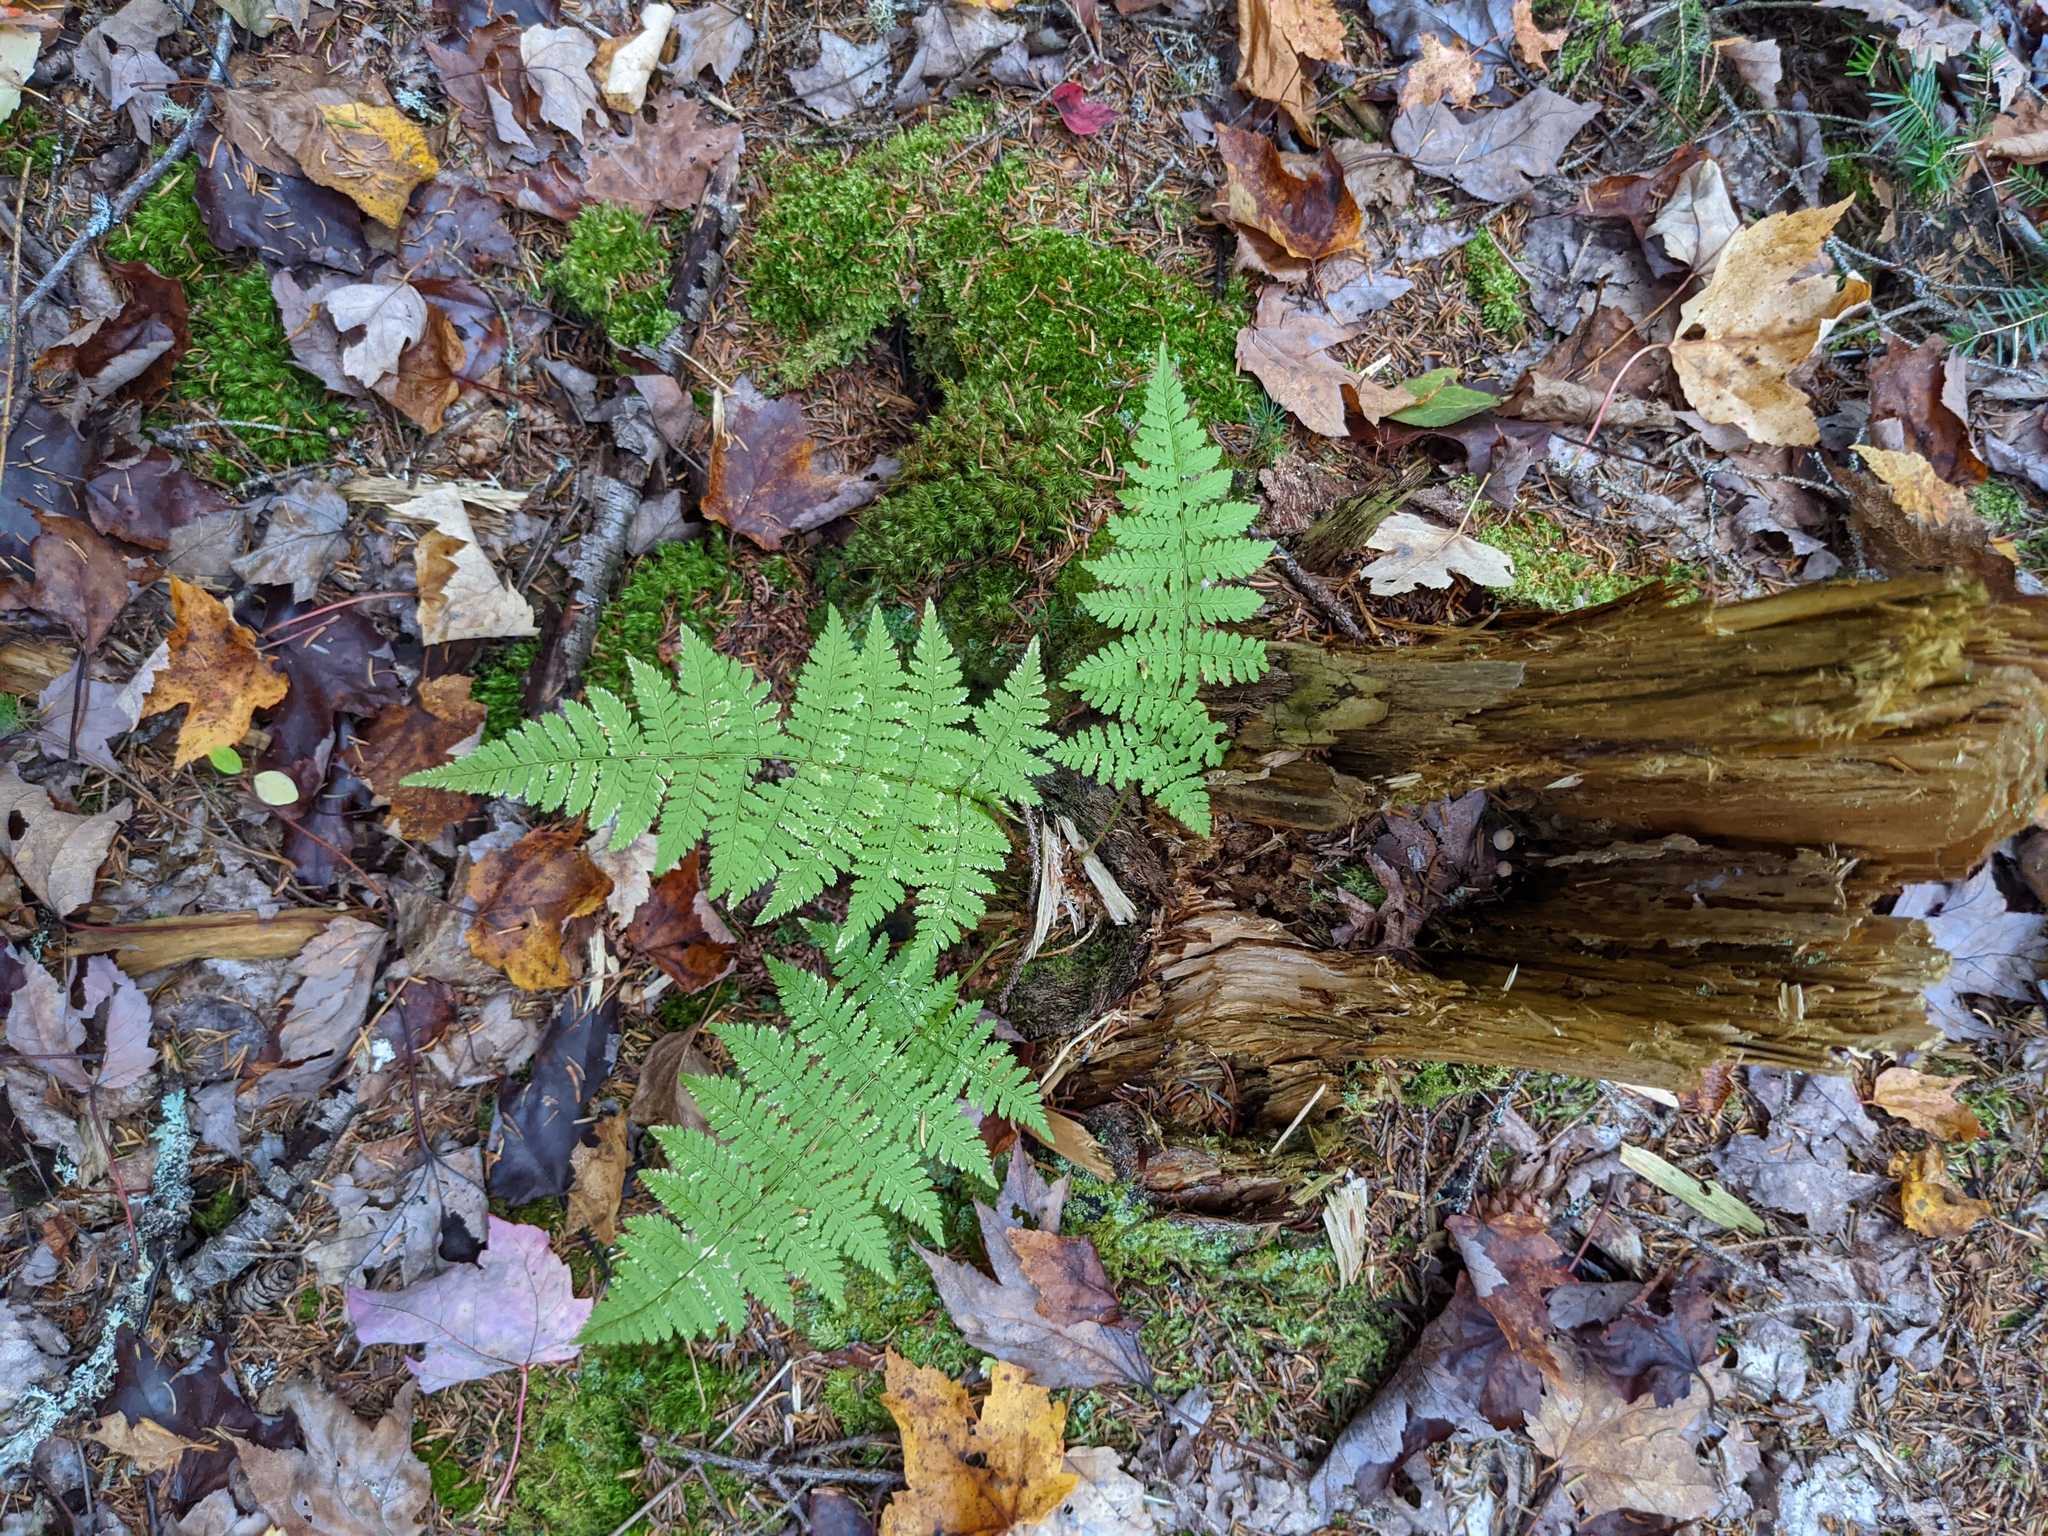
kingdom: Plantae
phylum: Tracheophyta
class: Polypodiopsida
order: Polypodiales
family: Dryopteridaceae
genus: Dryopteris
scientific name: Dryopteris intermedia
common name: Evergreen wood fern
